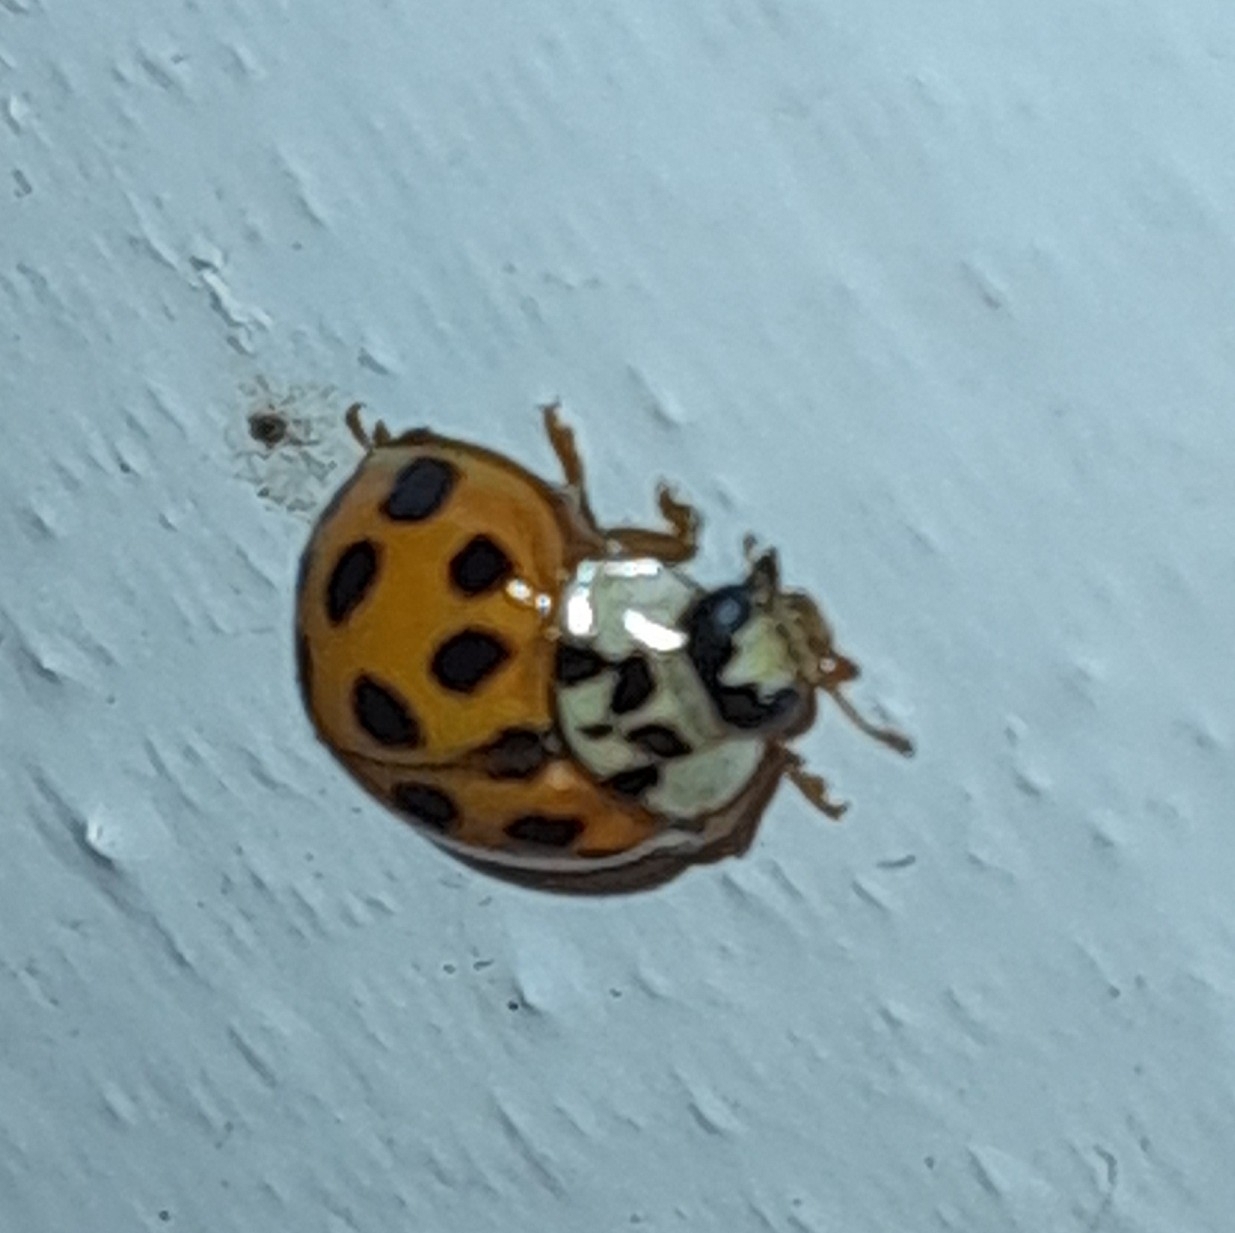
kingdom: Animalia
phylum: Arthropoda
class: Insecta
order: Coleoptera
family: Coccinellidae
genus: Harmonia
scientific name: Harmonia axyridis
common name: Harlequin ladybird
